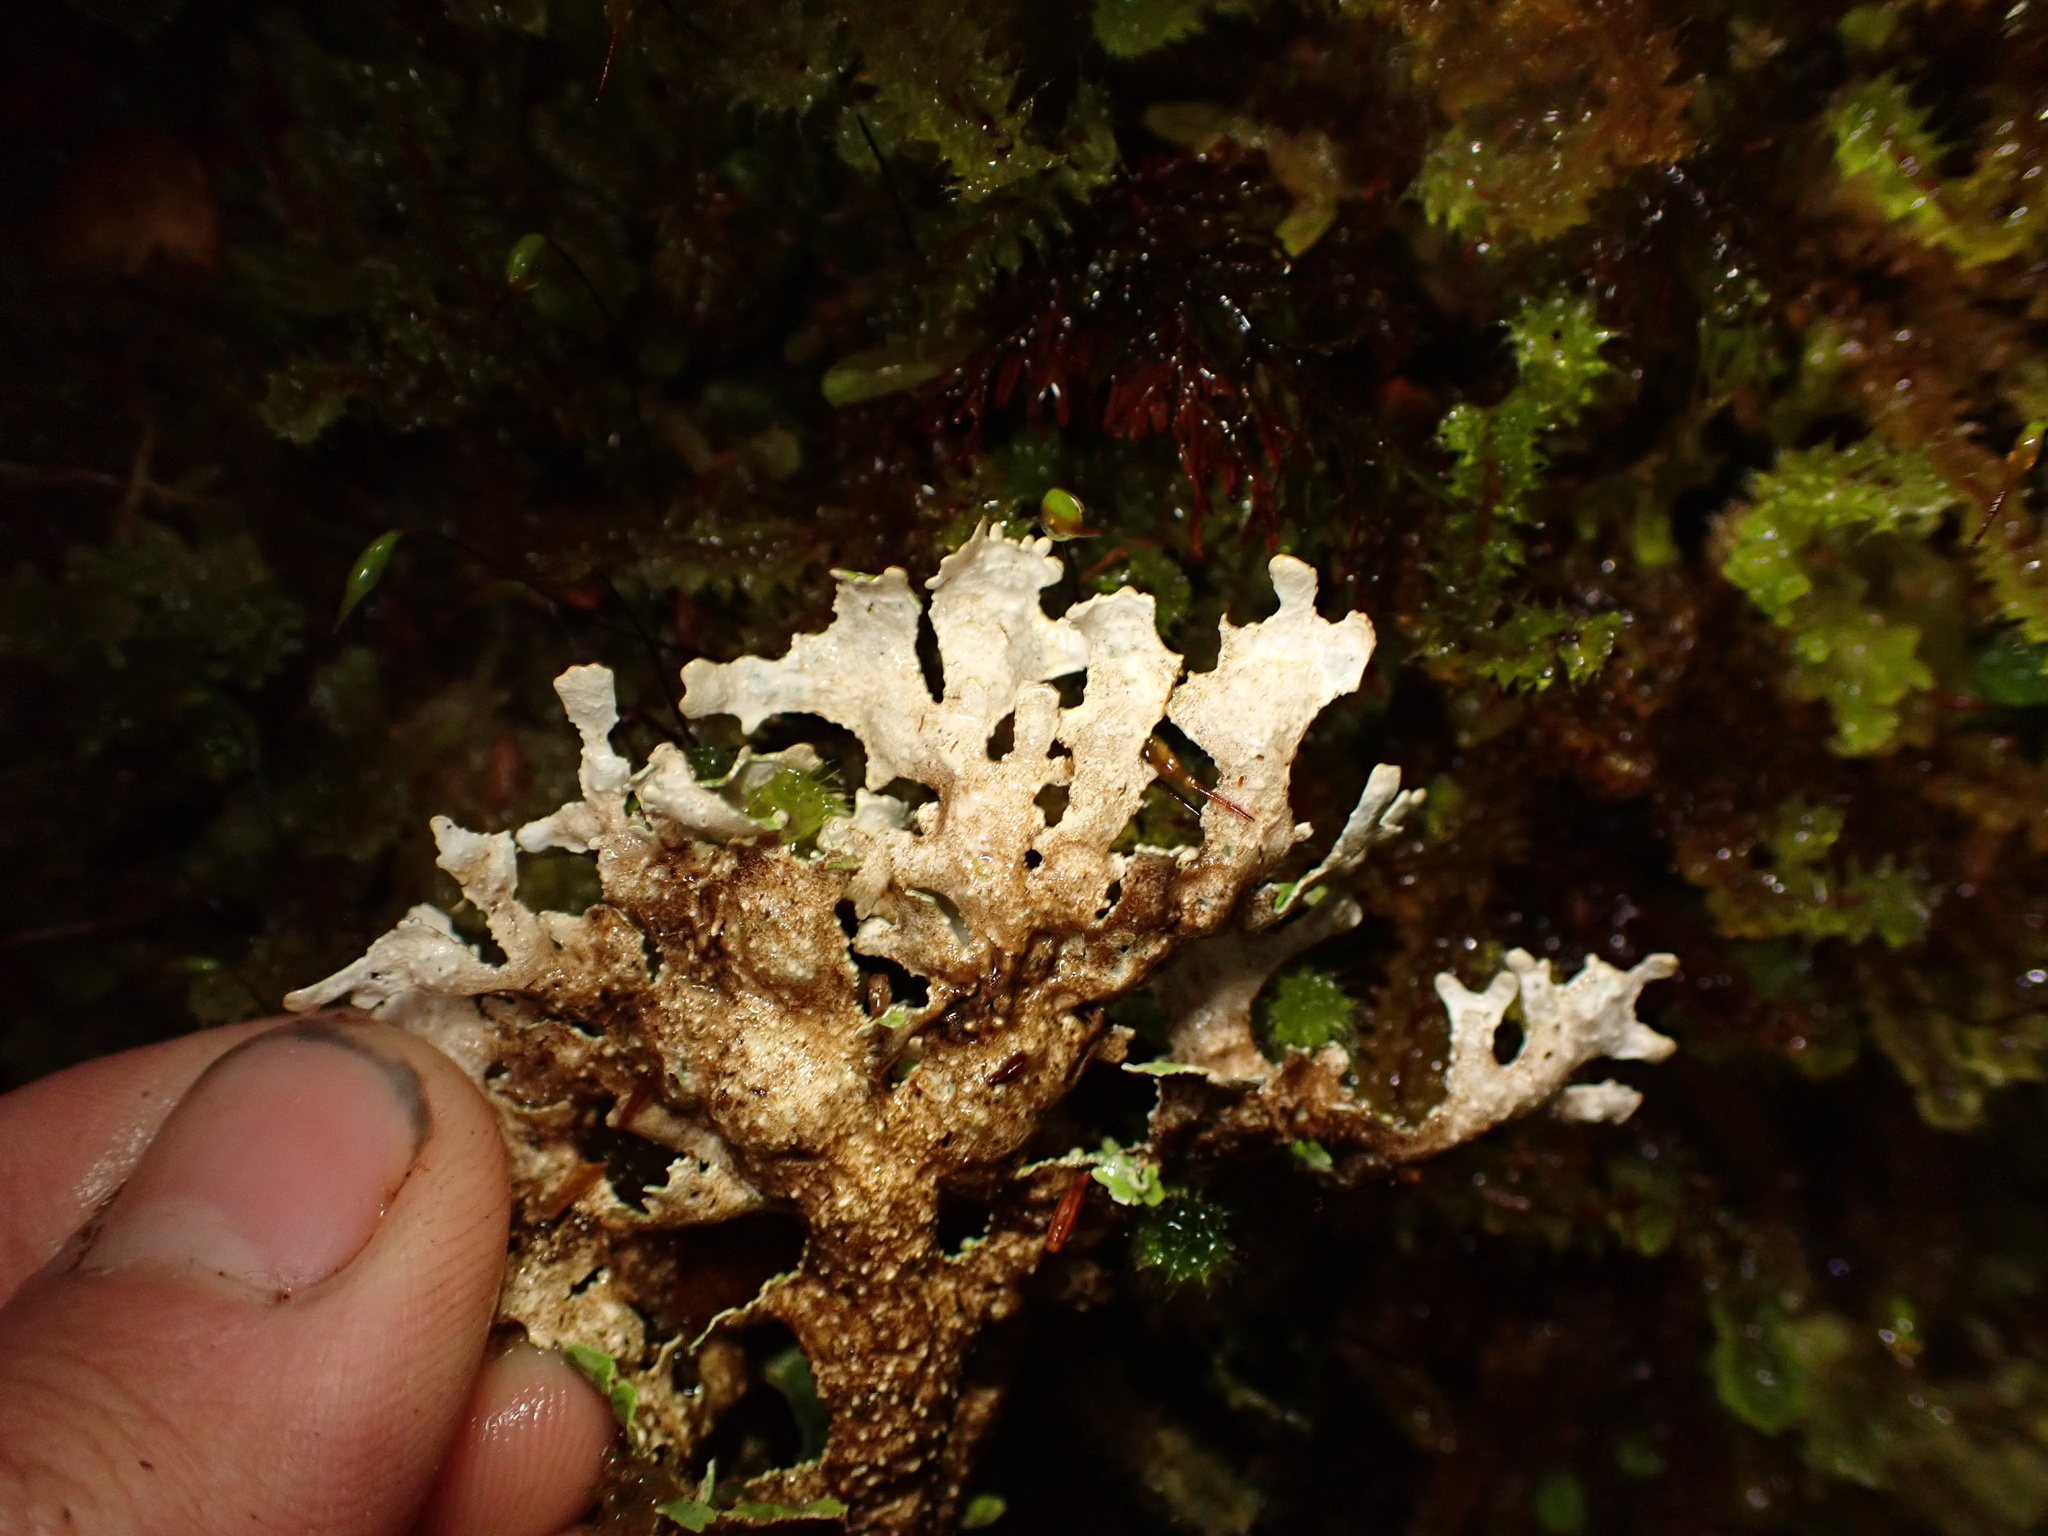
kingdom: Fungi
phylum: Ascomycota
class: Lecanoromycetes
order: Peltigerales
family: Lobariaceae
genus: Pseudocyphellaria
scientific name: Pseudocyphellaria glabra
